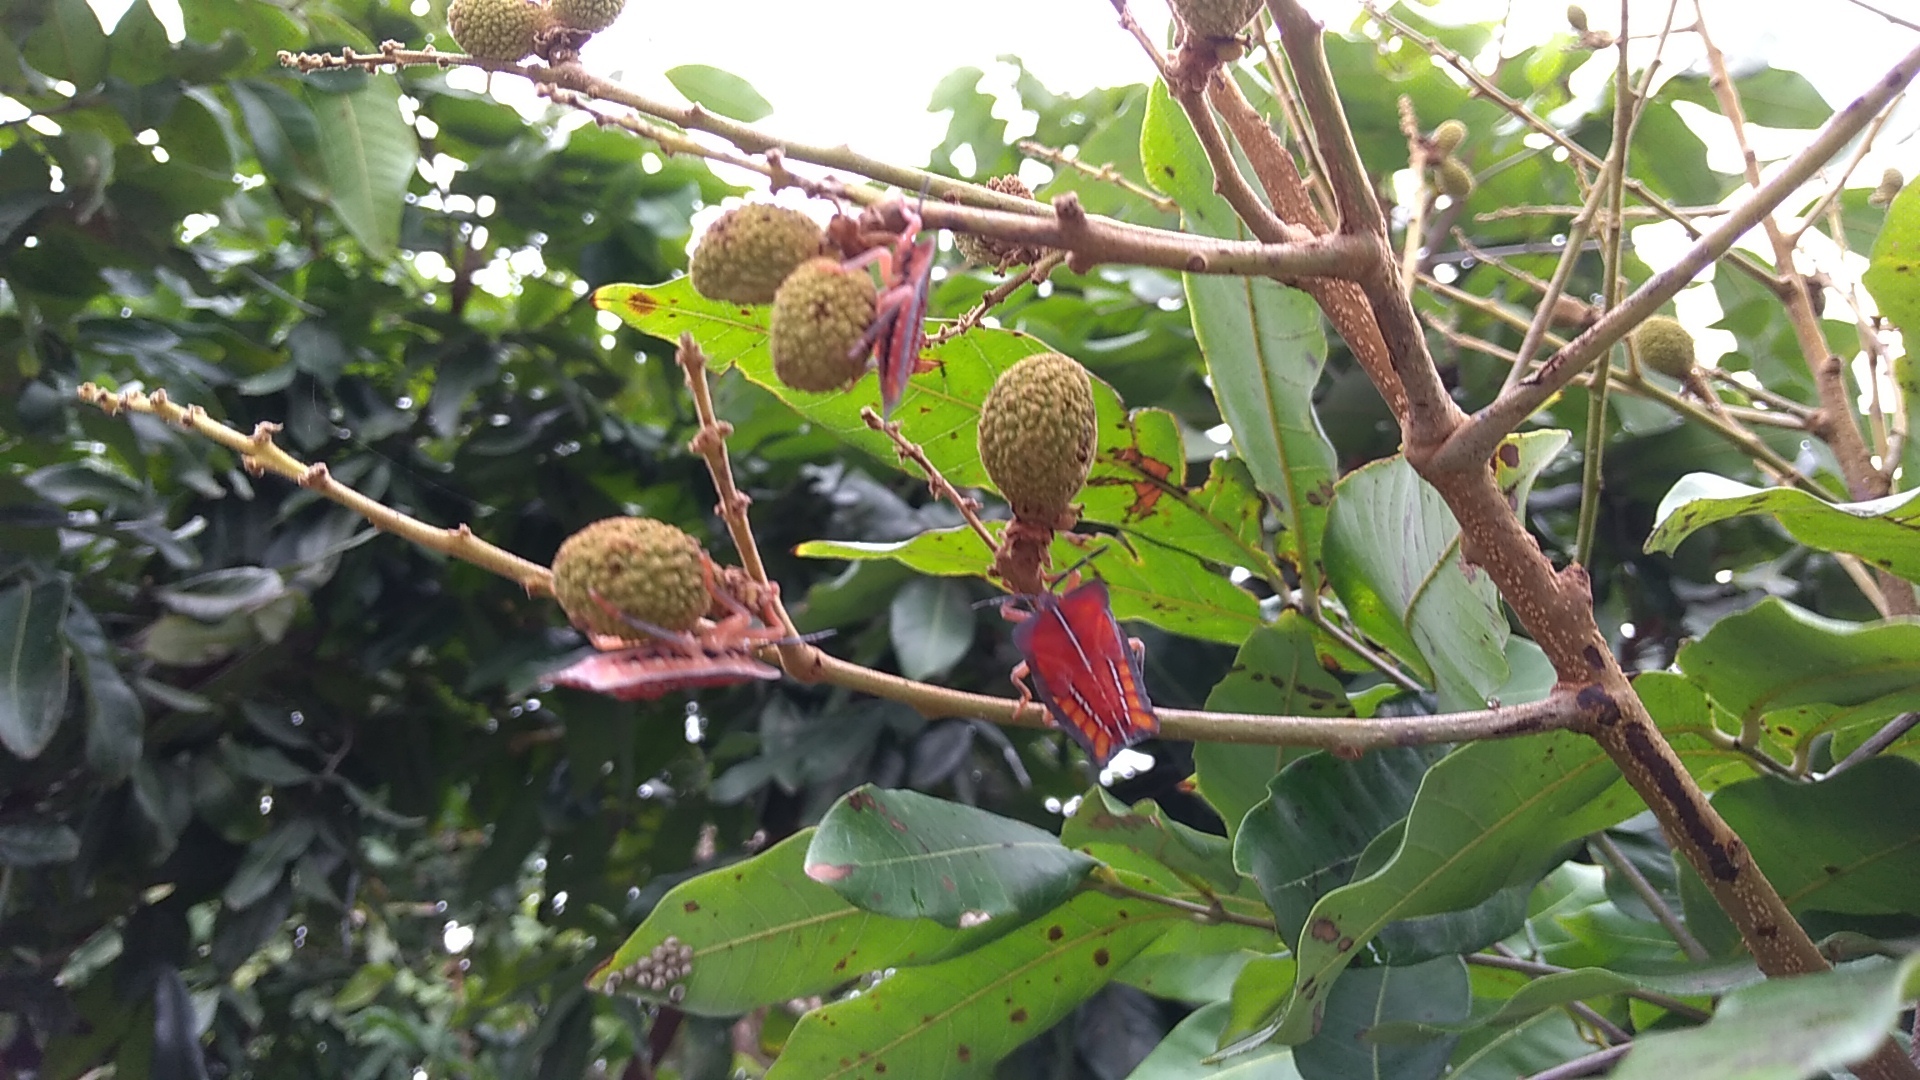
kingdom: Animalia
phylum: Arthropoda
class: Insecta
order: Hemiptera
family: Tessaratomidae
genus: Tessaratoma
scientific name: Tessaratoma papillosa
